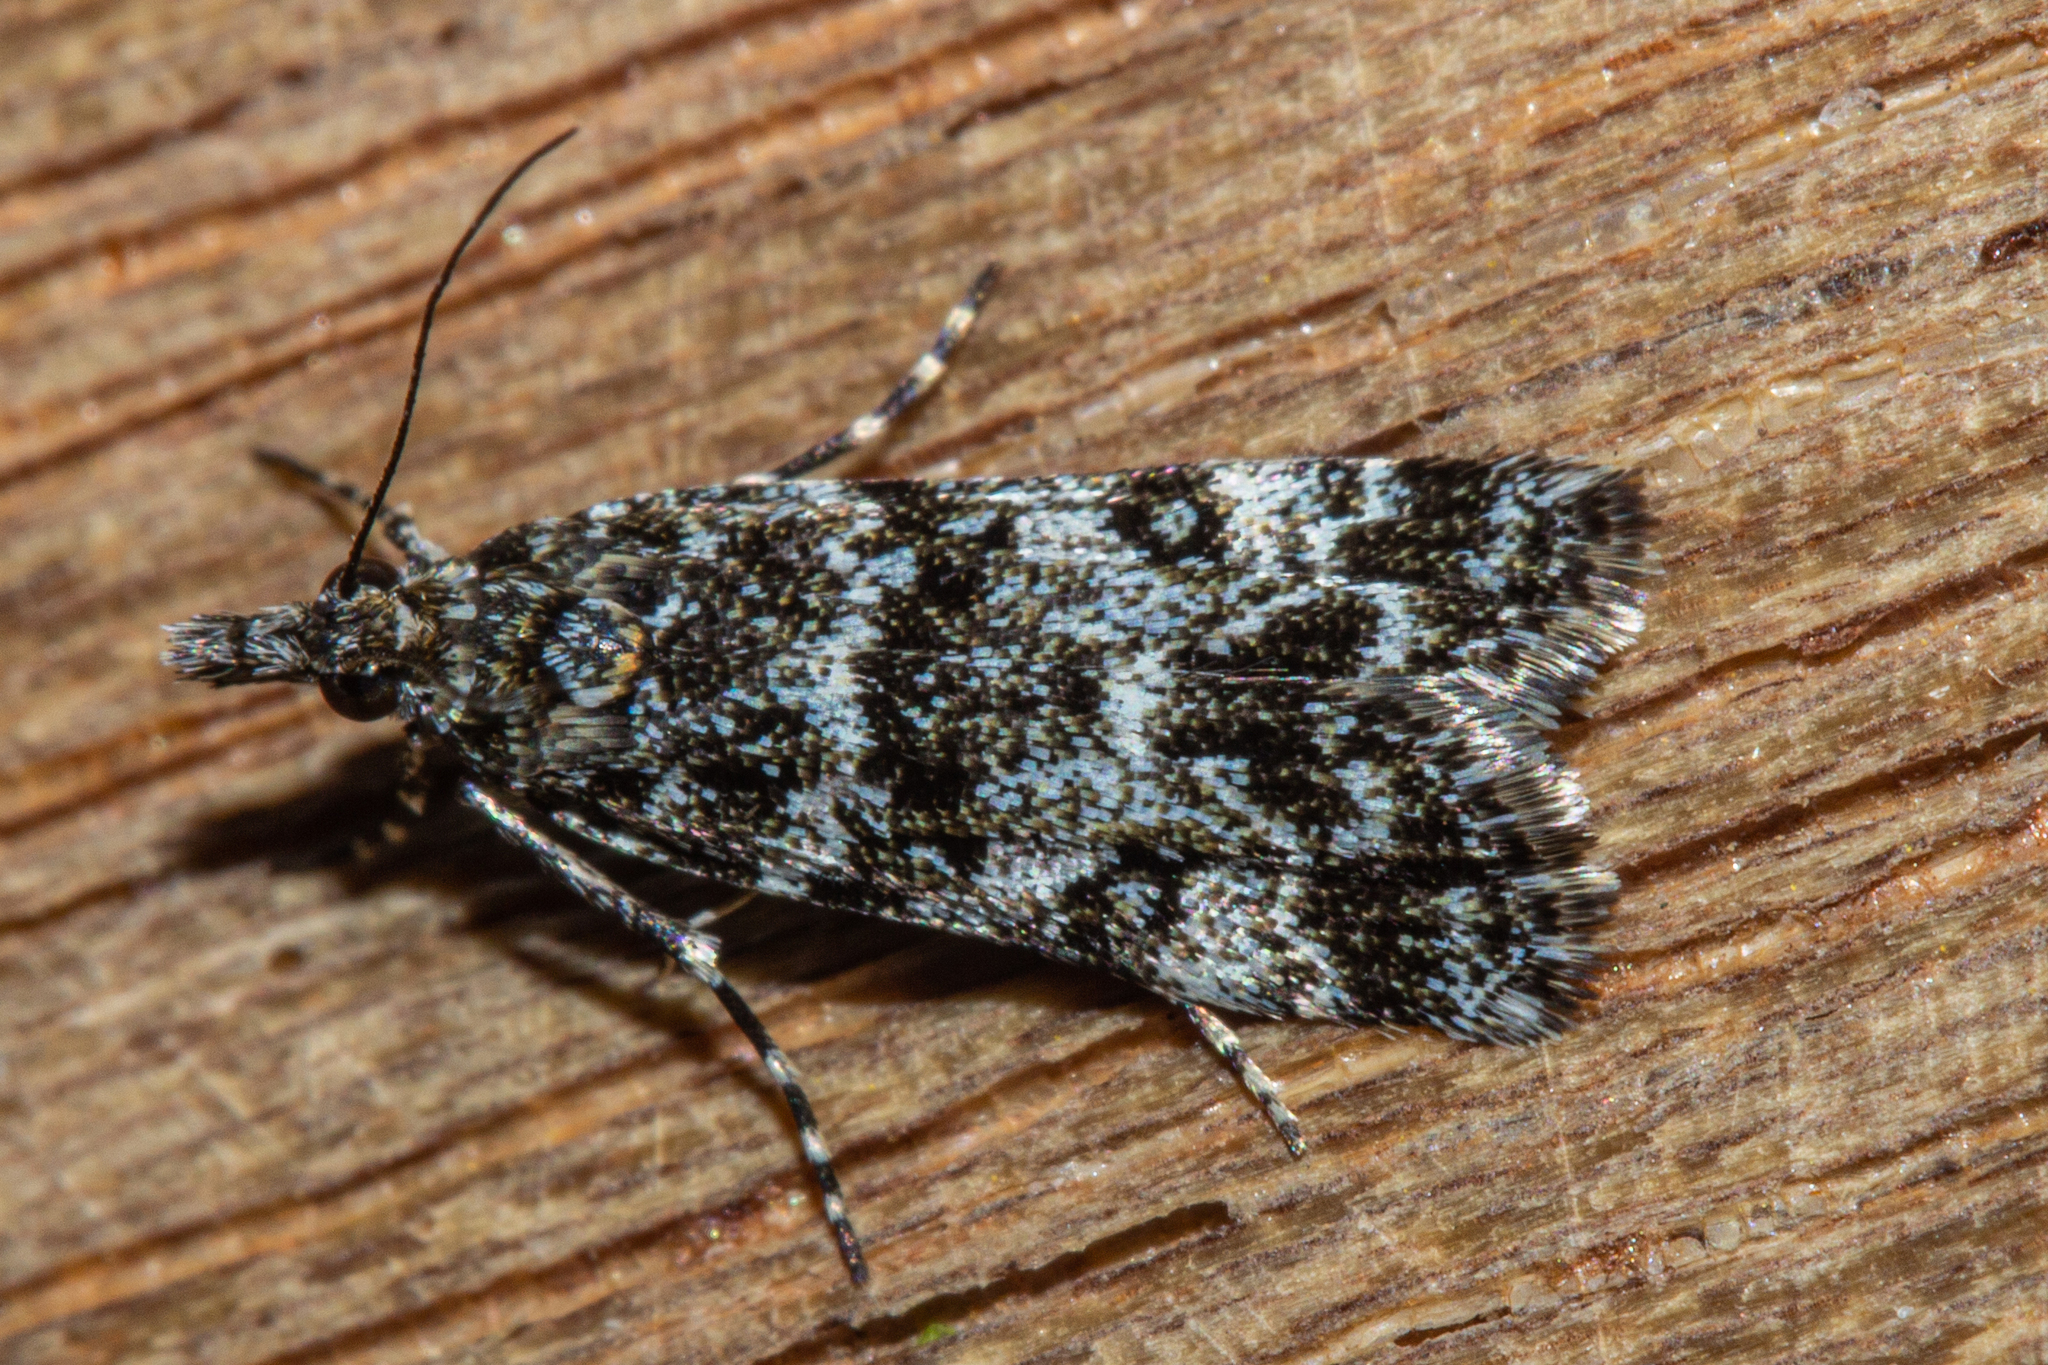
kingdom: Animalia
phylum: Arthropoda
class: Insecta
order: Lepidoptera
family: Crambidae
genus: Eudonia
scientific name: Eudonia critica
